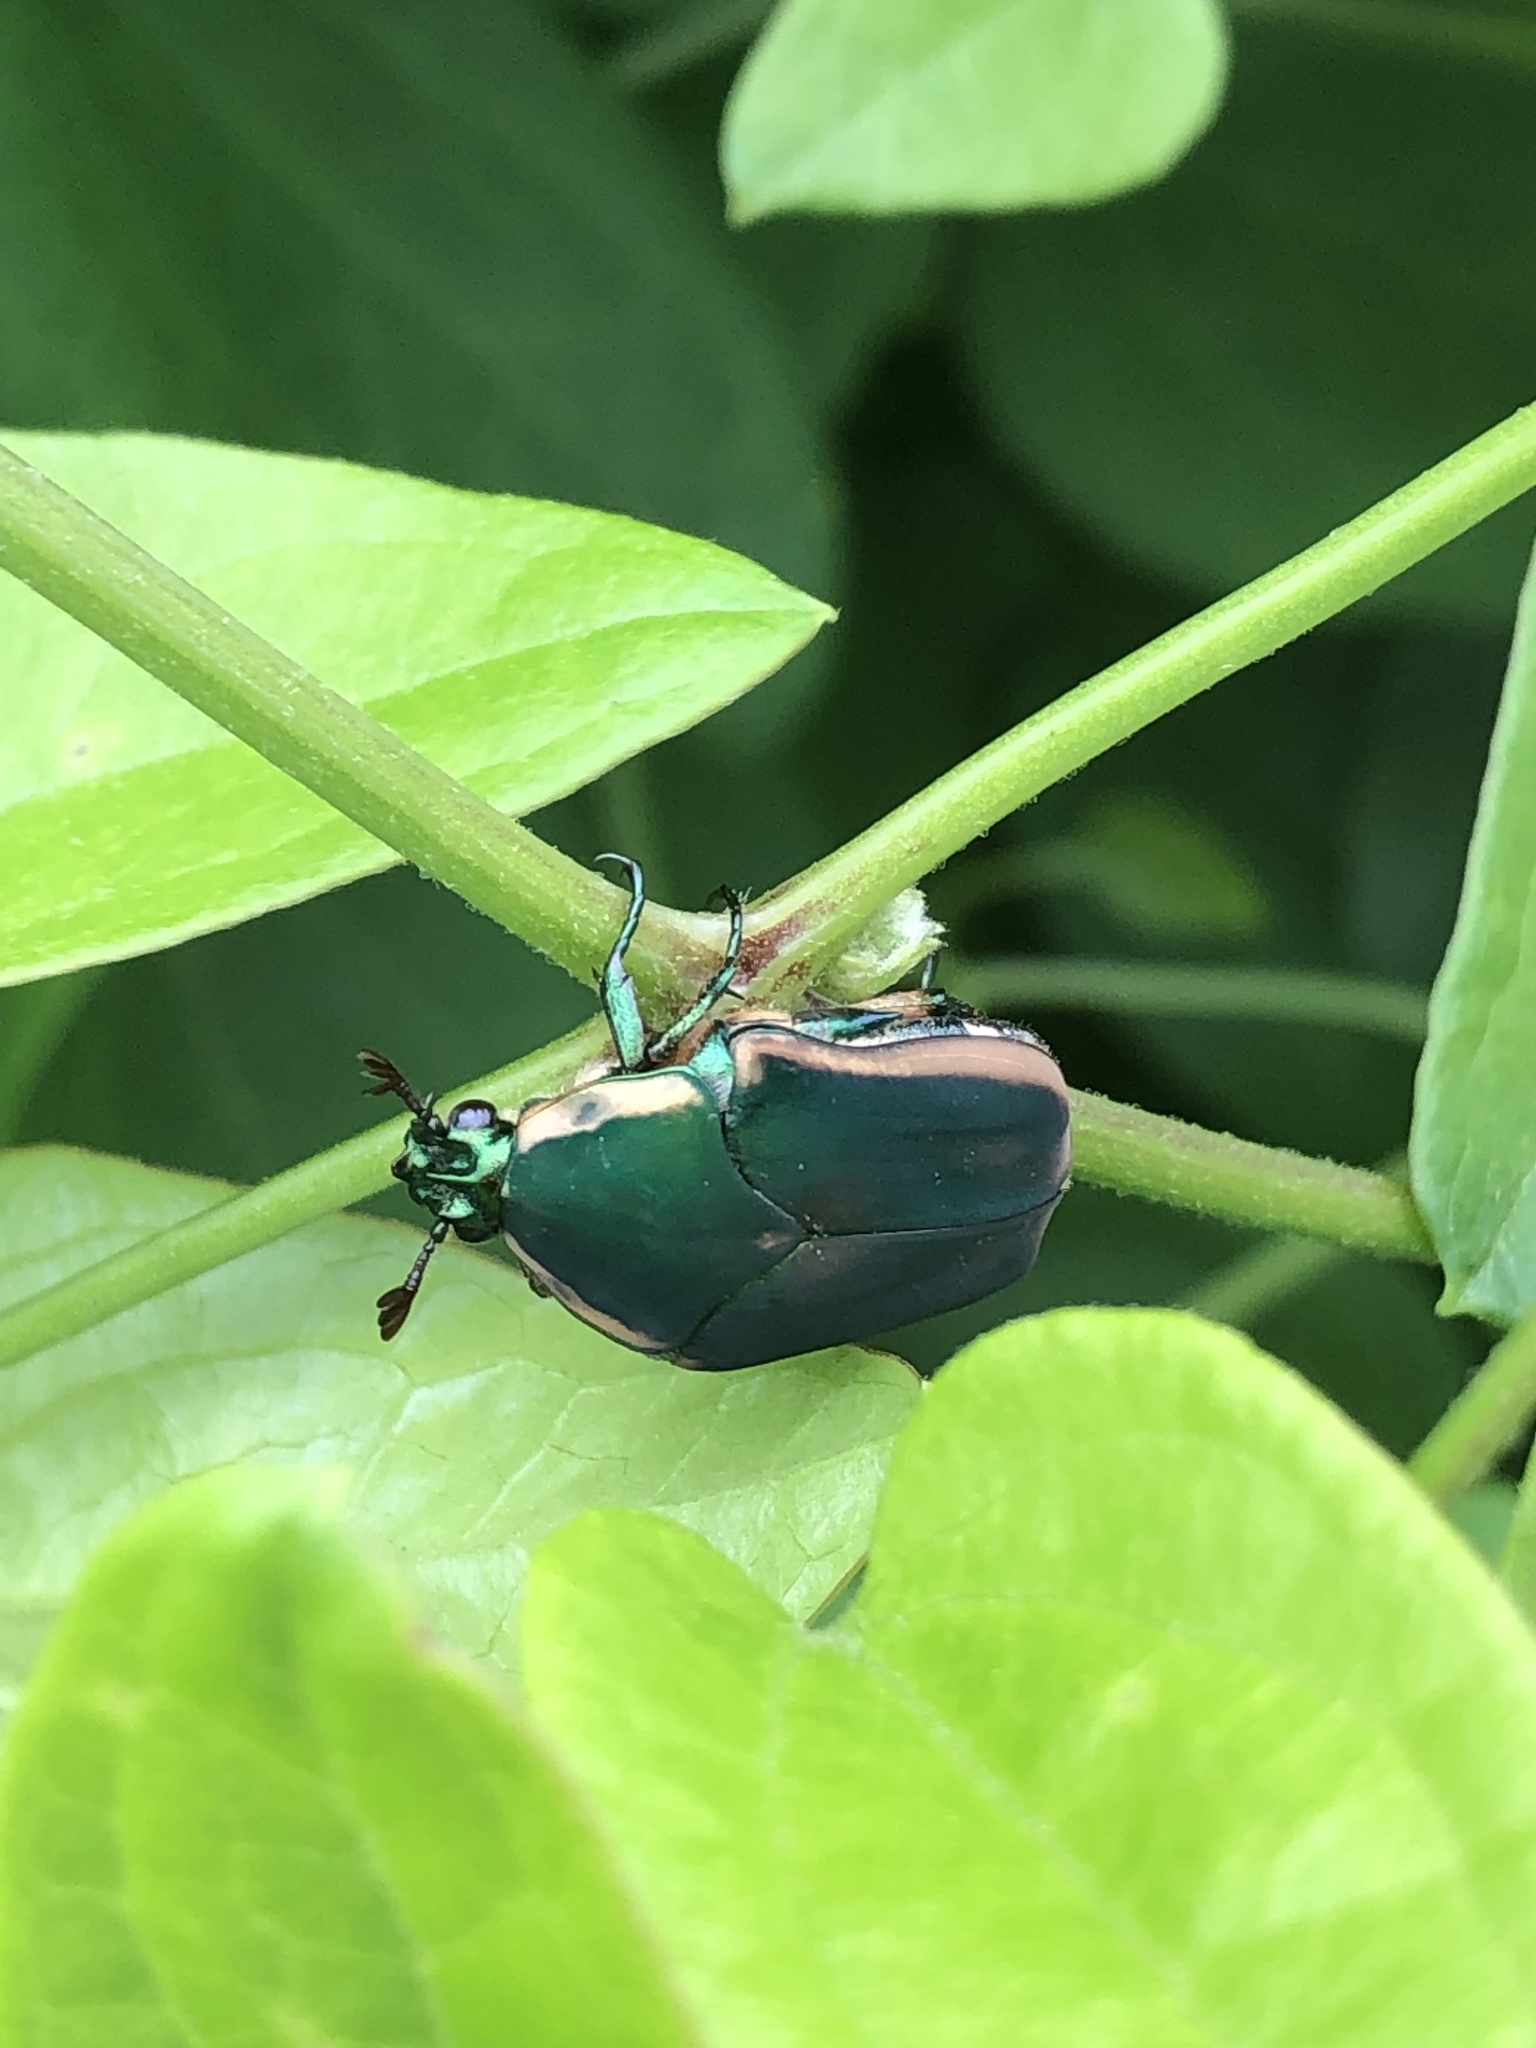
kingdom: Animalia
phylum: Arthropoda
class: Insecta
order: Coleoptera
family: Scarabaeidae
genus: Cotinis
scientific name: Cotinis nitida
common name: Common green june beetle
